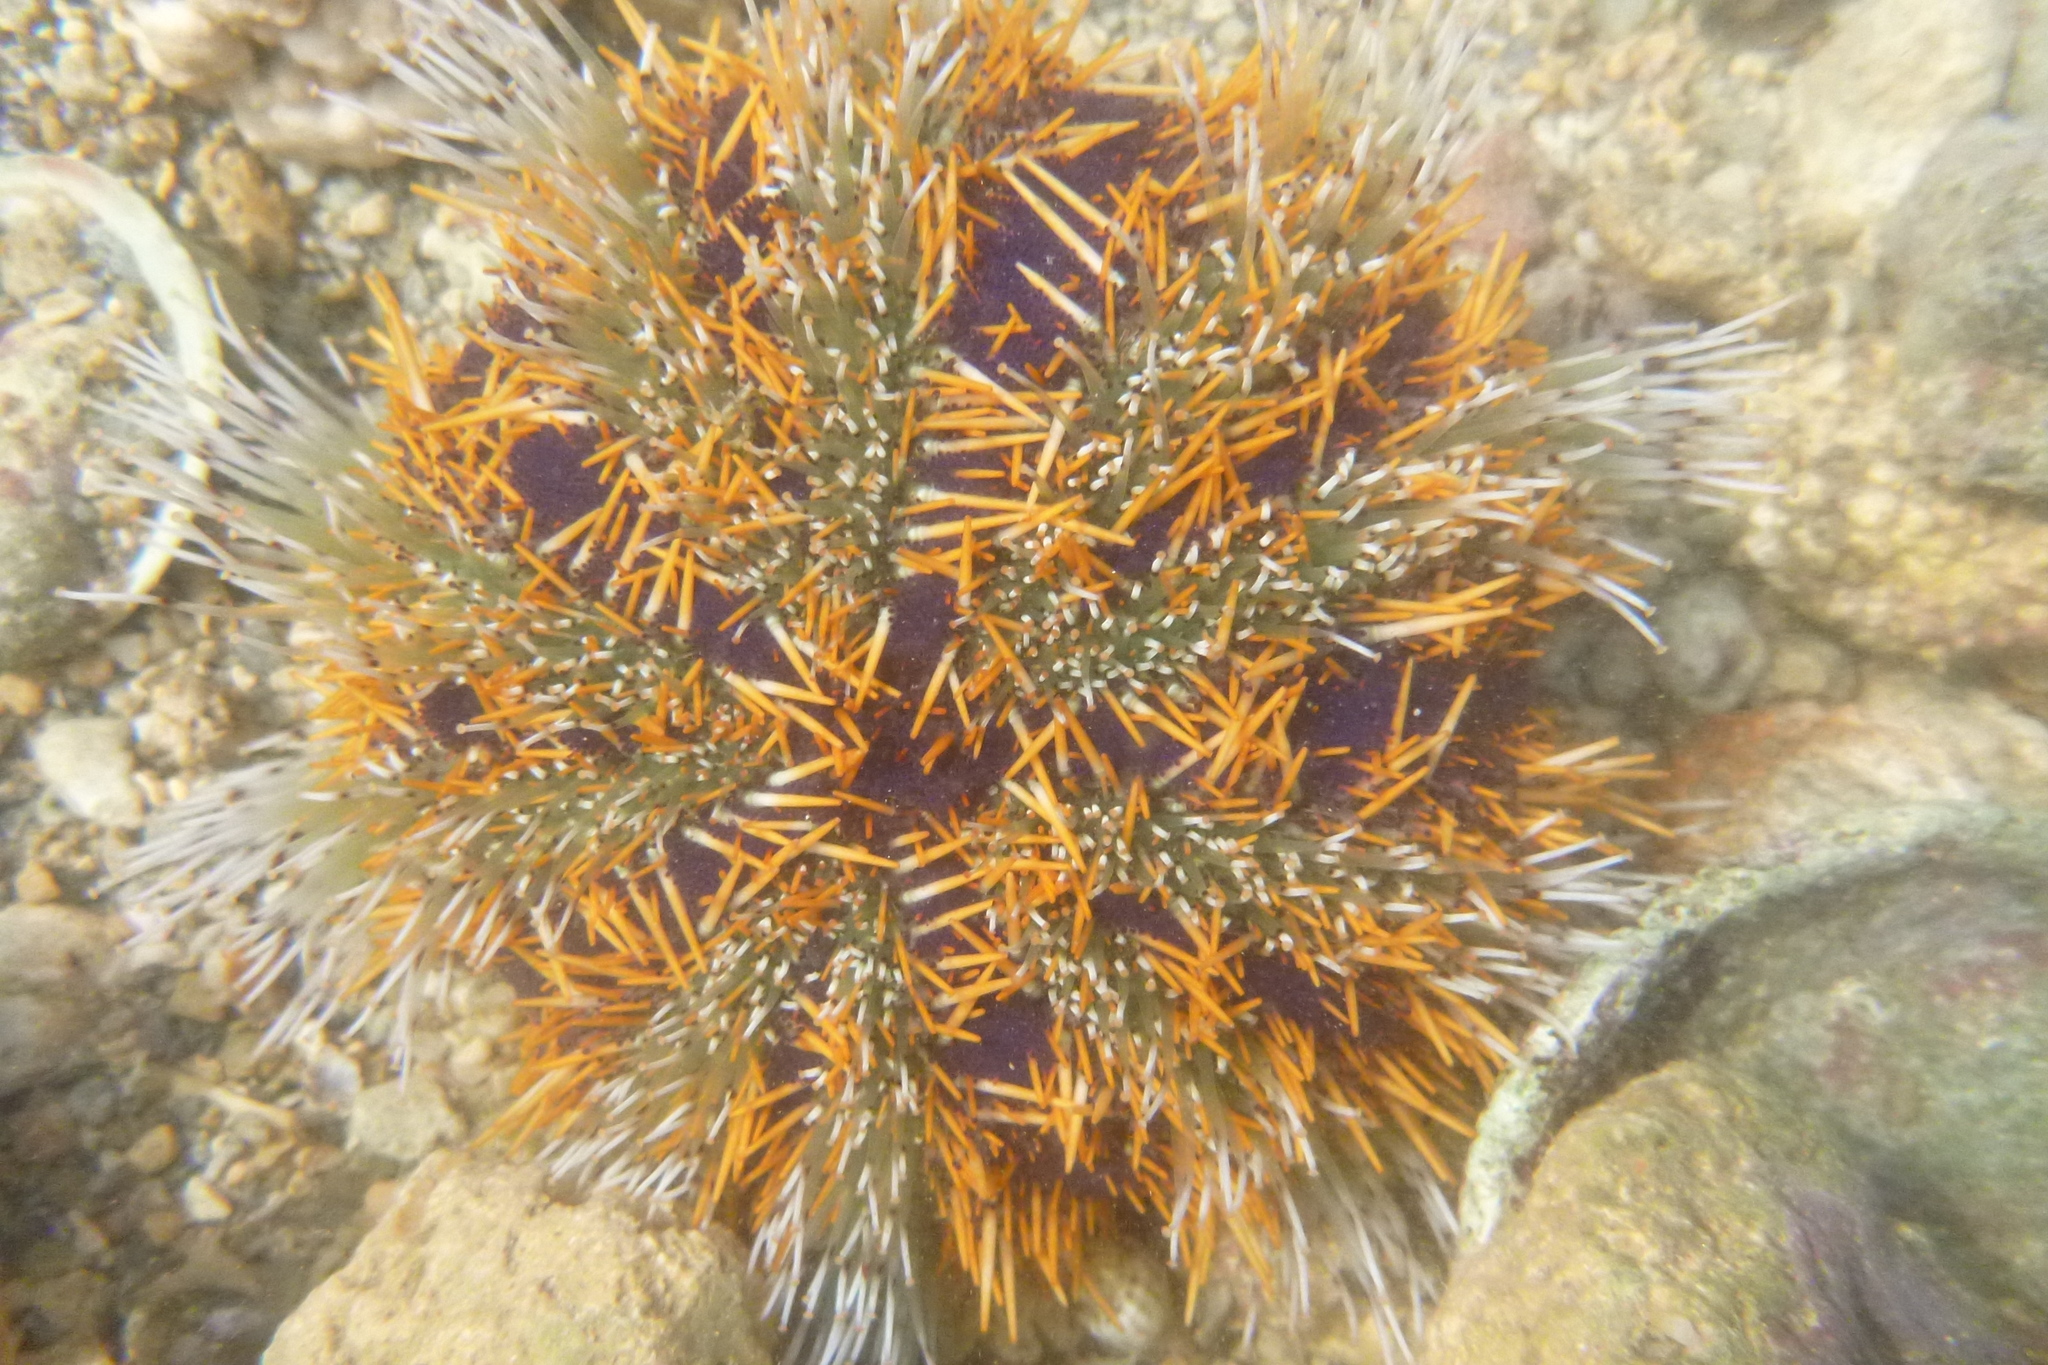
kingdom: Animalia
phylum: Echinodermata
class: Echinoidea
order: Camarodonta
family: Toxopneustidae
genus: Tripneustes
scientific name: Tripneustes gratilla
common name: Bischofsmützenseeigel
